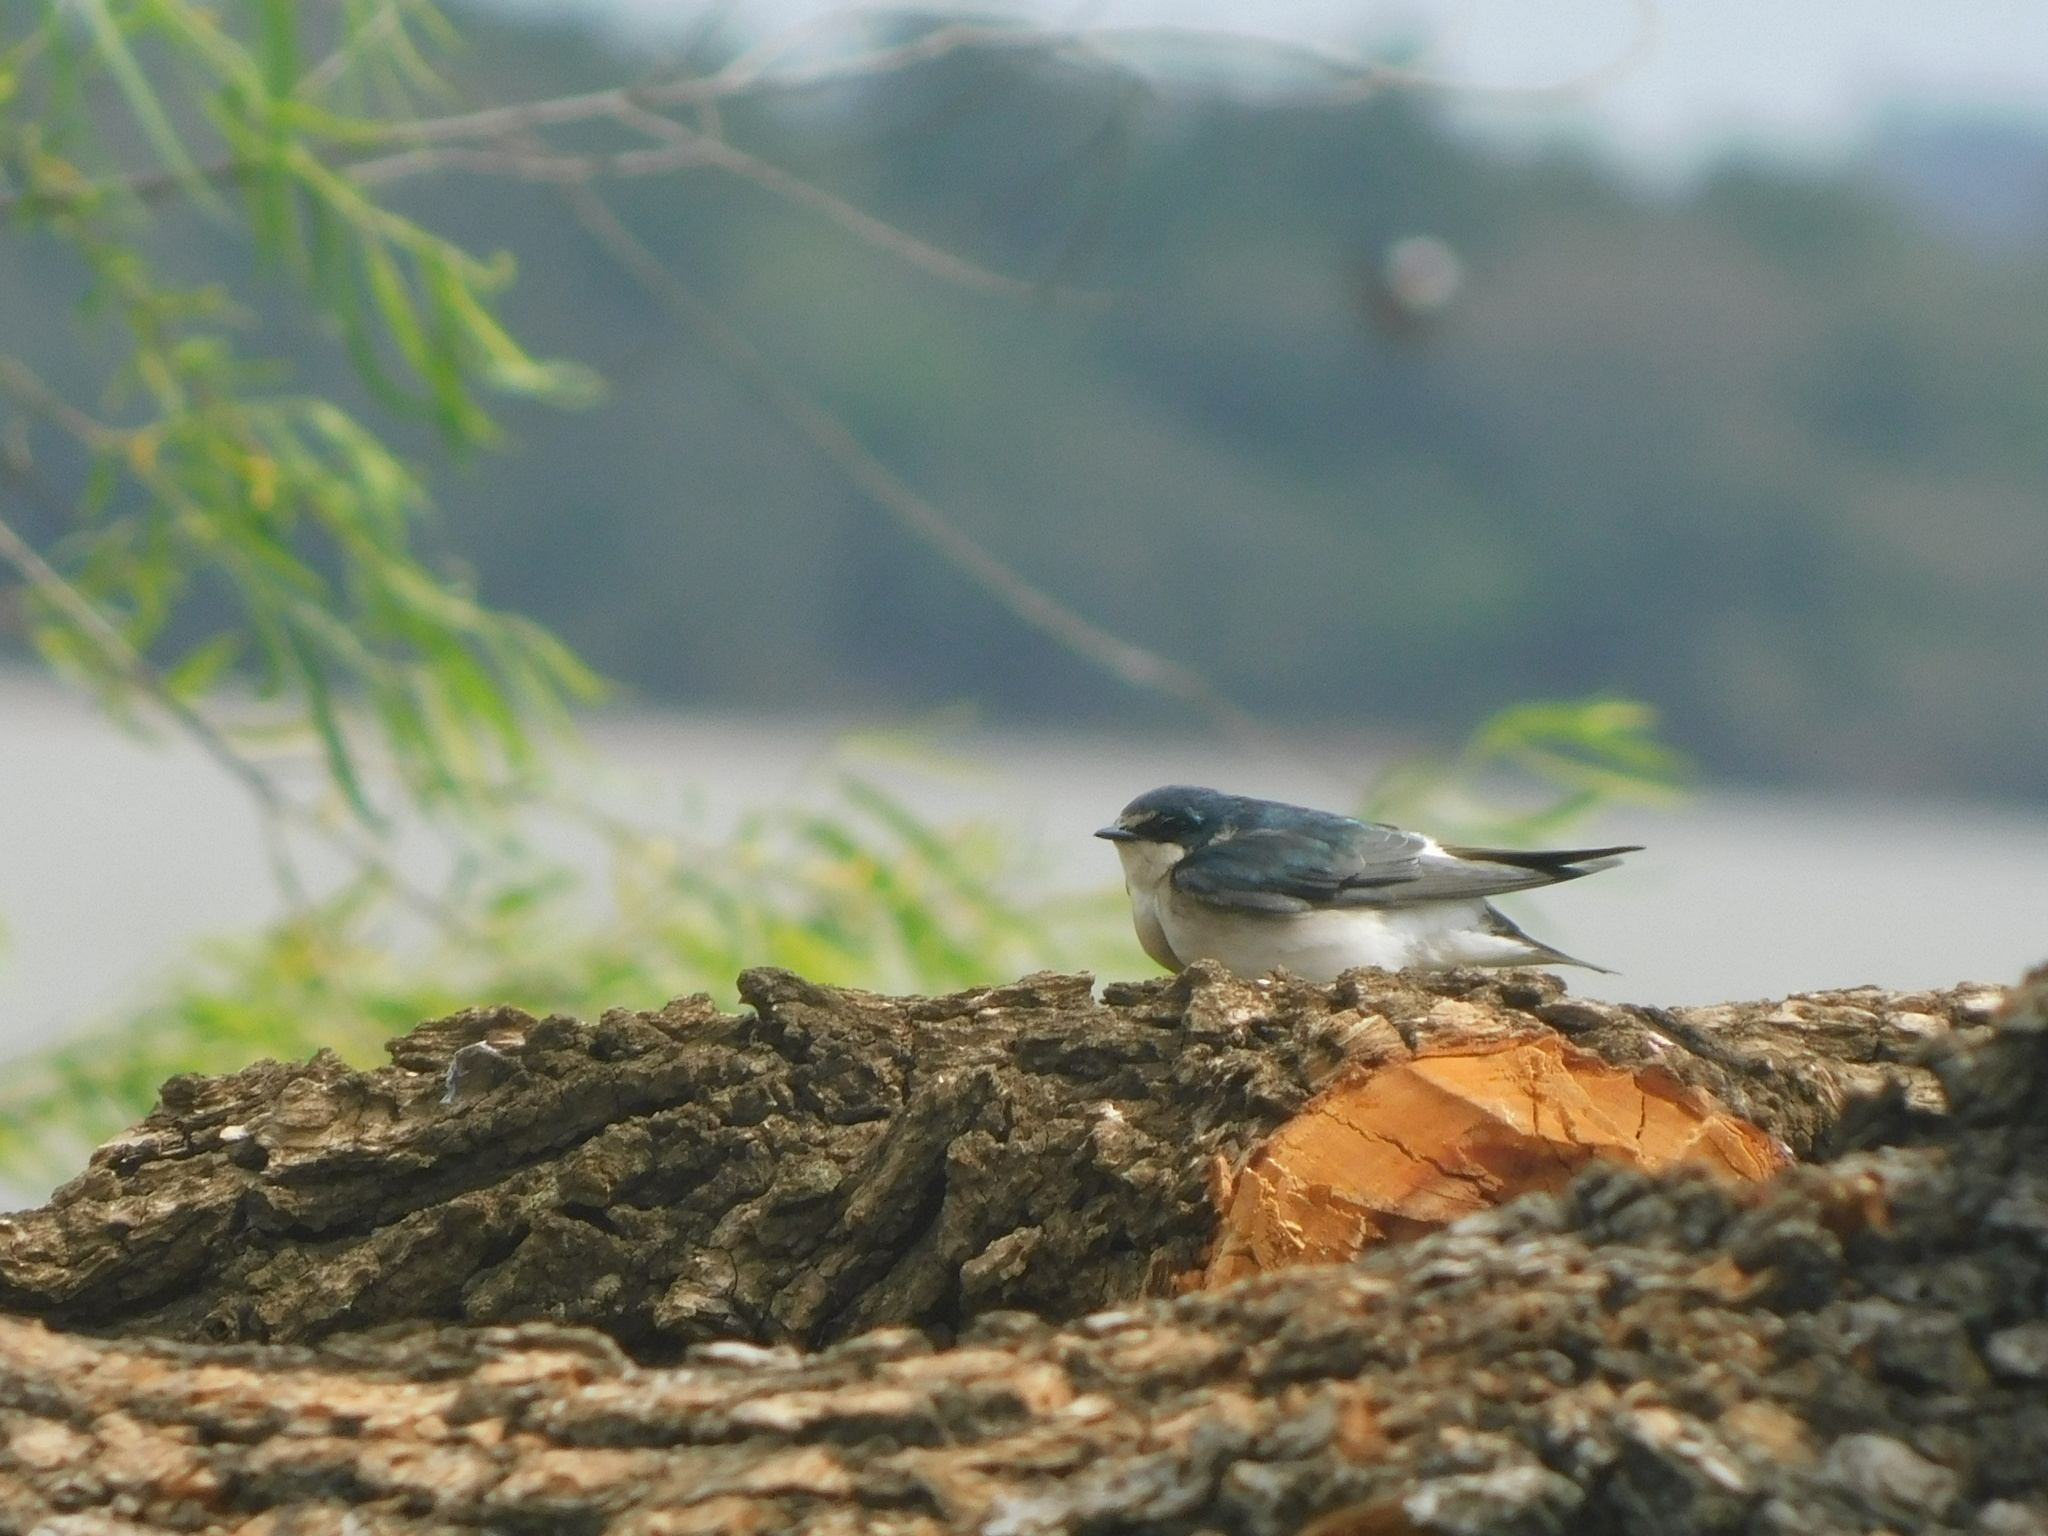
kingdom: Animalia
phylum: Chordata
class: Aves
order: Passeriformes
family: Hirundinidae
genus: Tachycineta
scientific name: Tachycineta leucorrhoa
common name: White-rumped swallow
